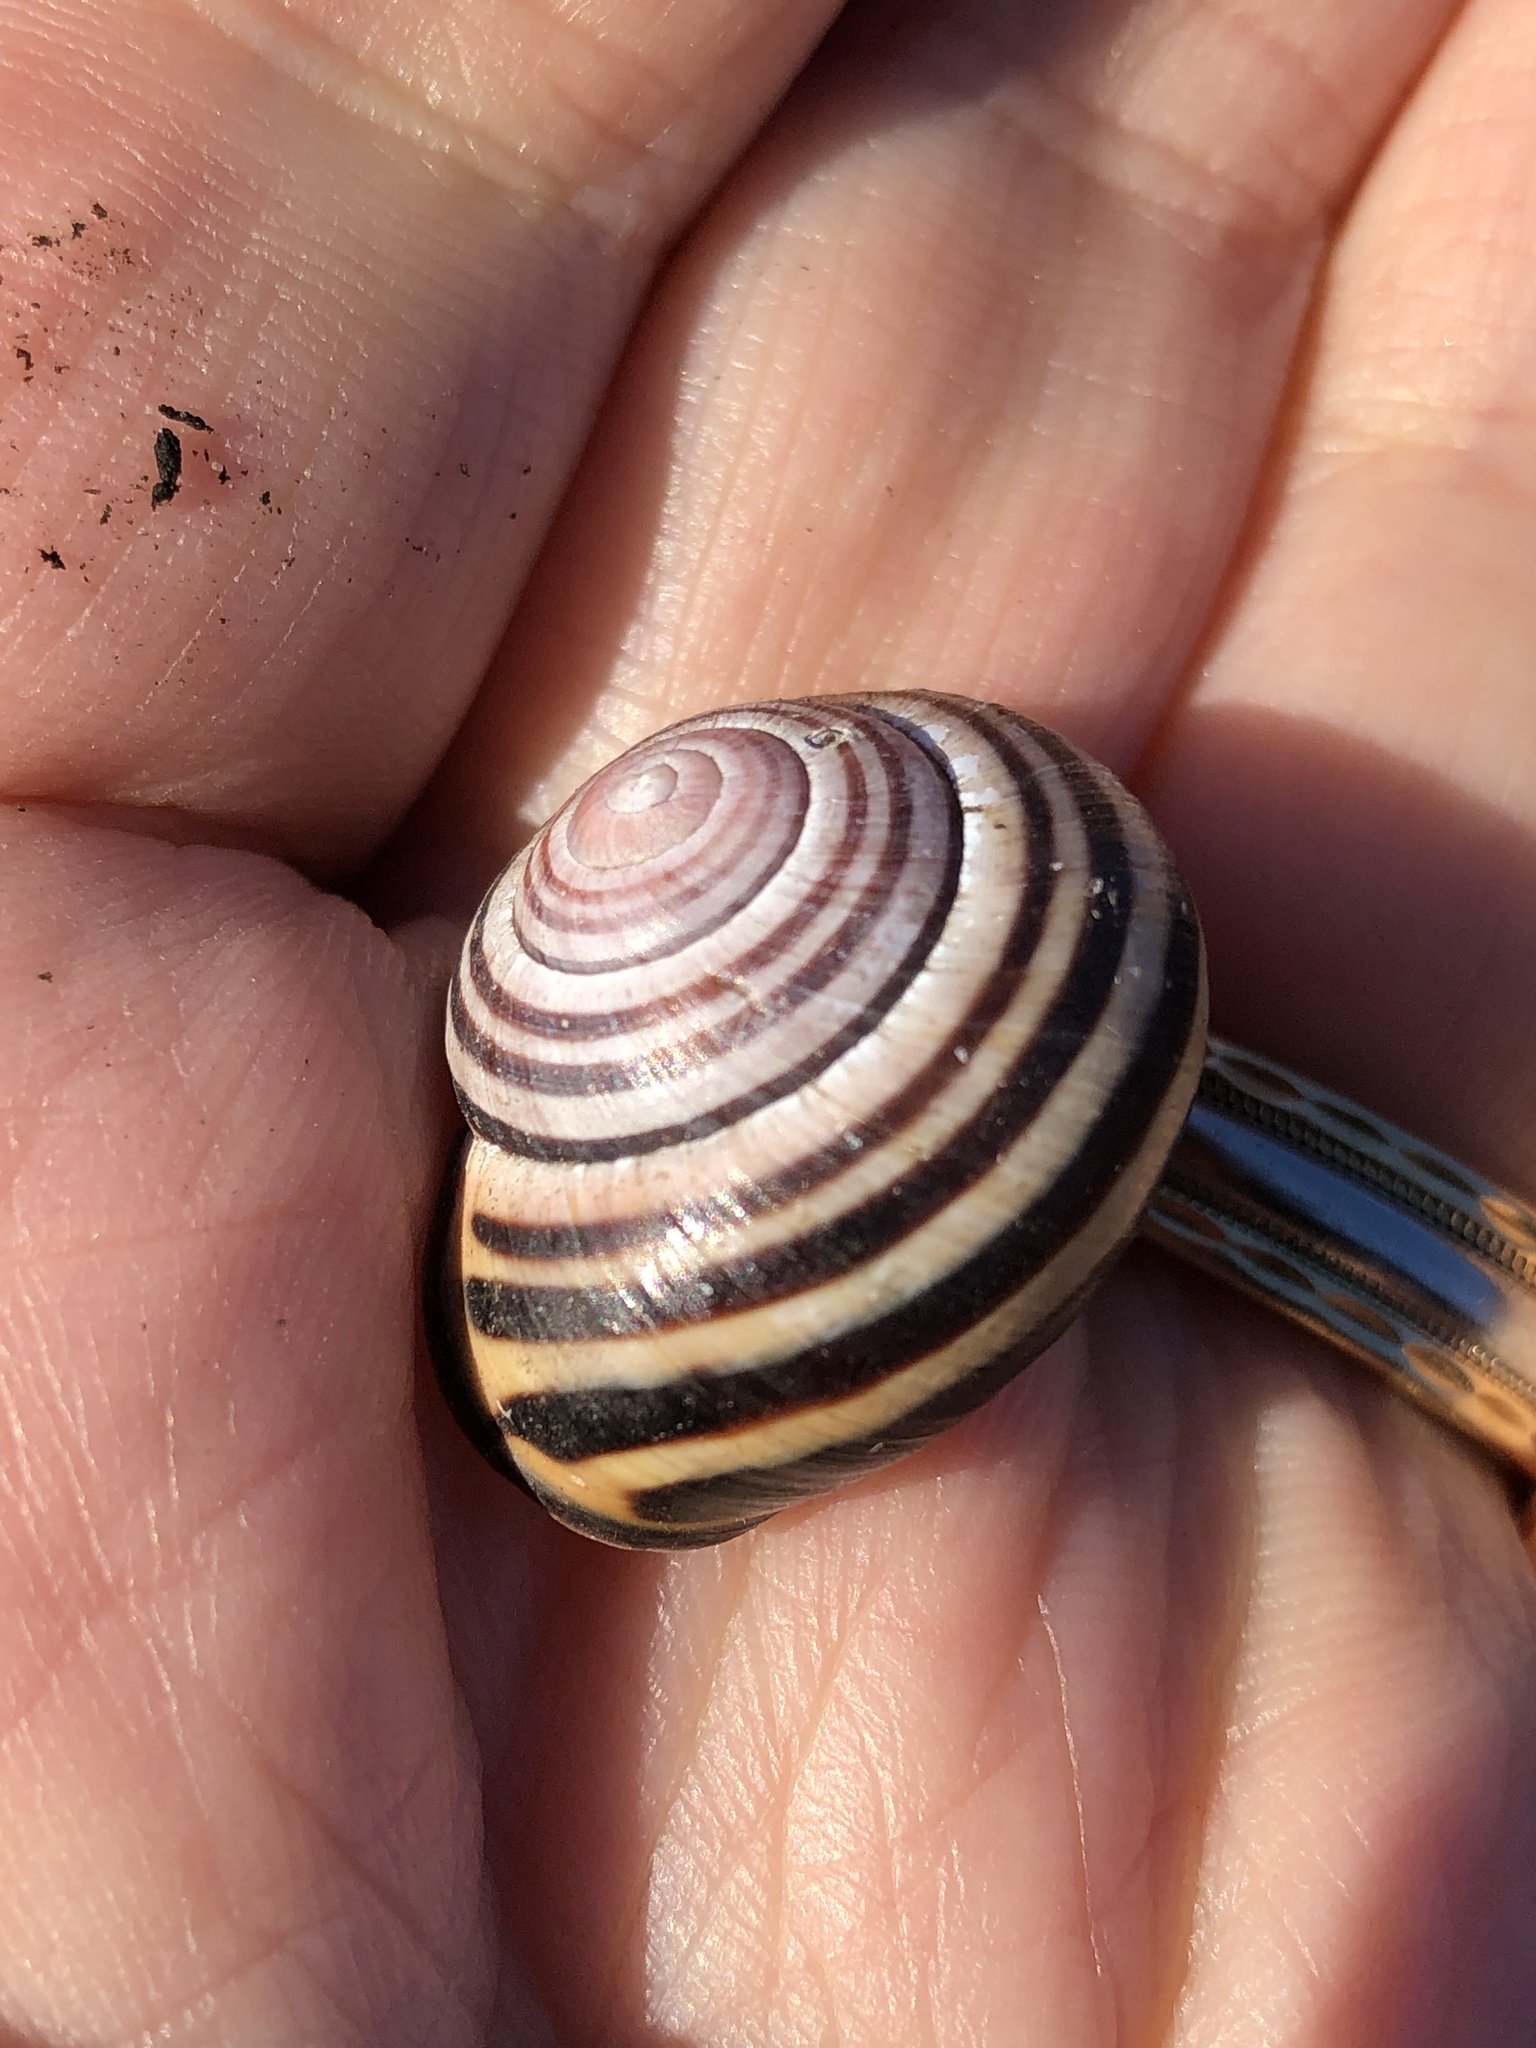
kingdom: Animalia
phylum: Mollusca
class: Gastropoda
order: Stylommatophora
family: Helicidae
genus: Cepaea
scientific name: Cepaea nemoralis
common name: Grovesnail
